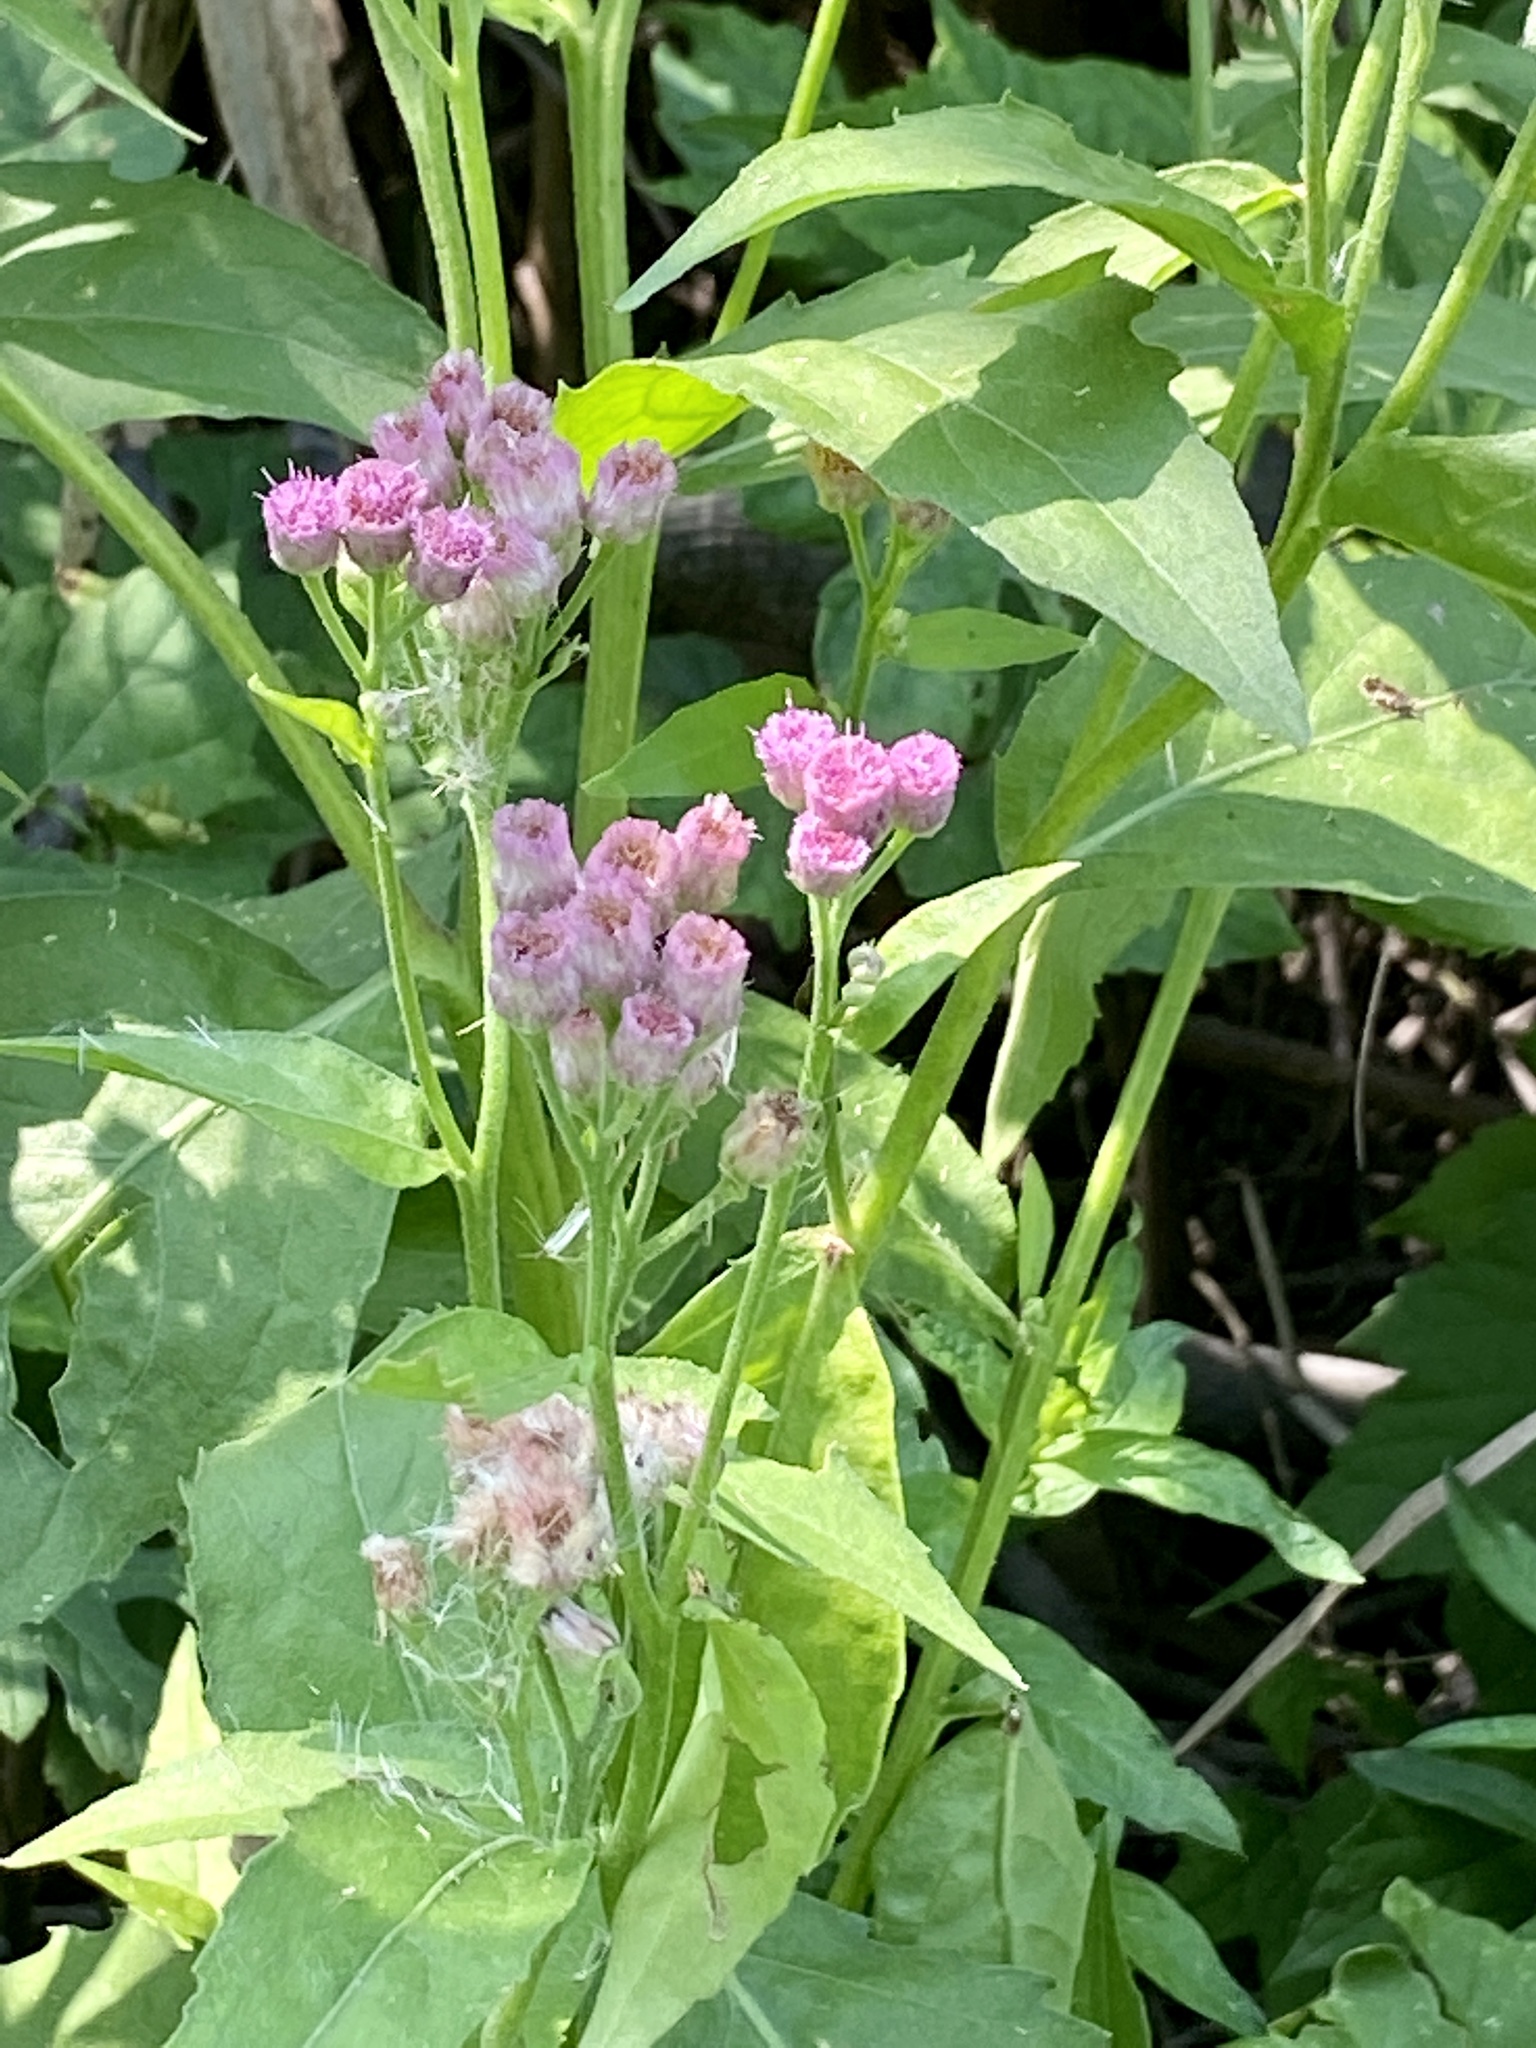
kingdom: Plantae
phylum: Tracheophyta
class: Magnoliopsida
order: Asterales
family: Asteraceae
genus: Pluchea
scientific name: Pluchea odorata
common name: Saltmarsh fleabane
